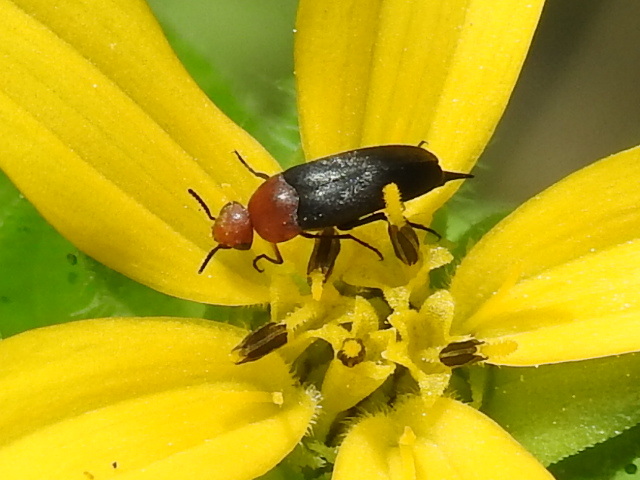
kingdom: Animalia
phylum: Arthropoda
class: Insecta
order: Coleoptera
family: Mordellidae
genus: Mordellistena
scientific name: Mordellistena cervicalis
